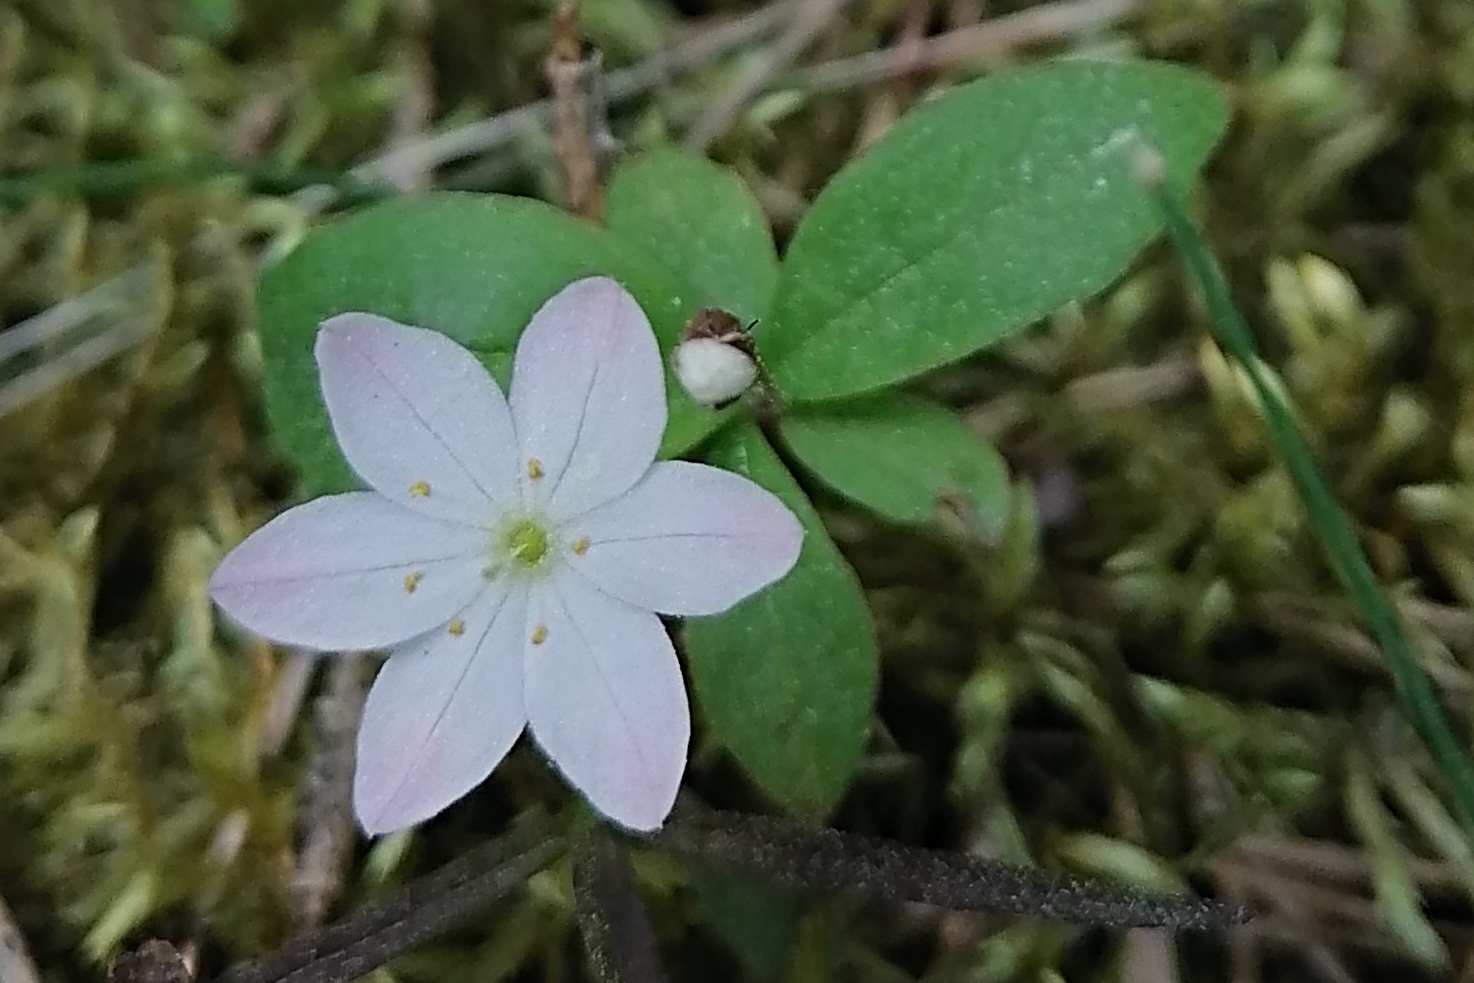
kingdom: Plantae
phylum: Tracheophyta
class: Magnoliopsida
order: Ericales
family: Primulaceae
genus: Lysimachia
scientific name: Lysimachia europaea
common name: Arctic starflower
